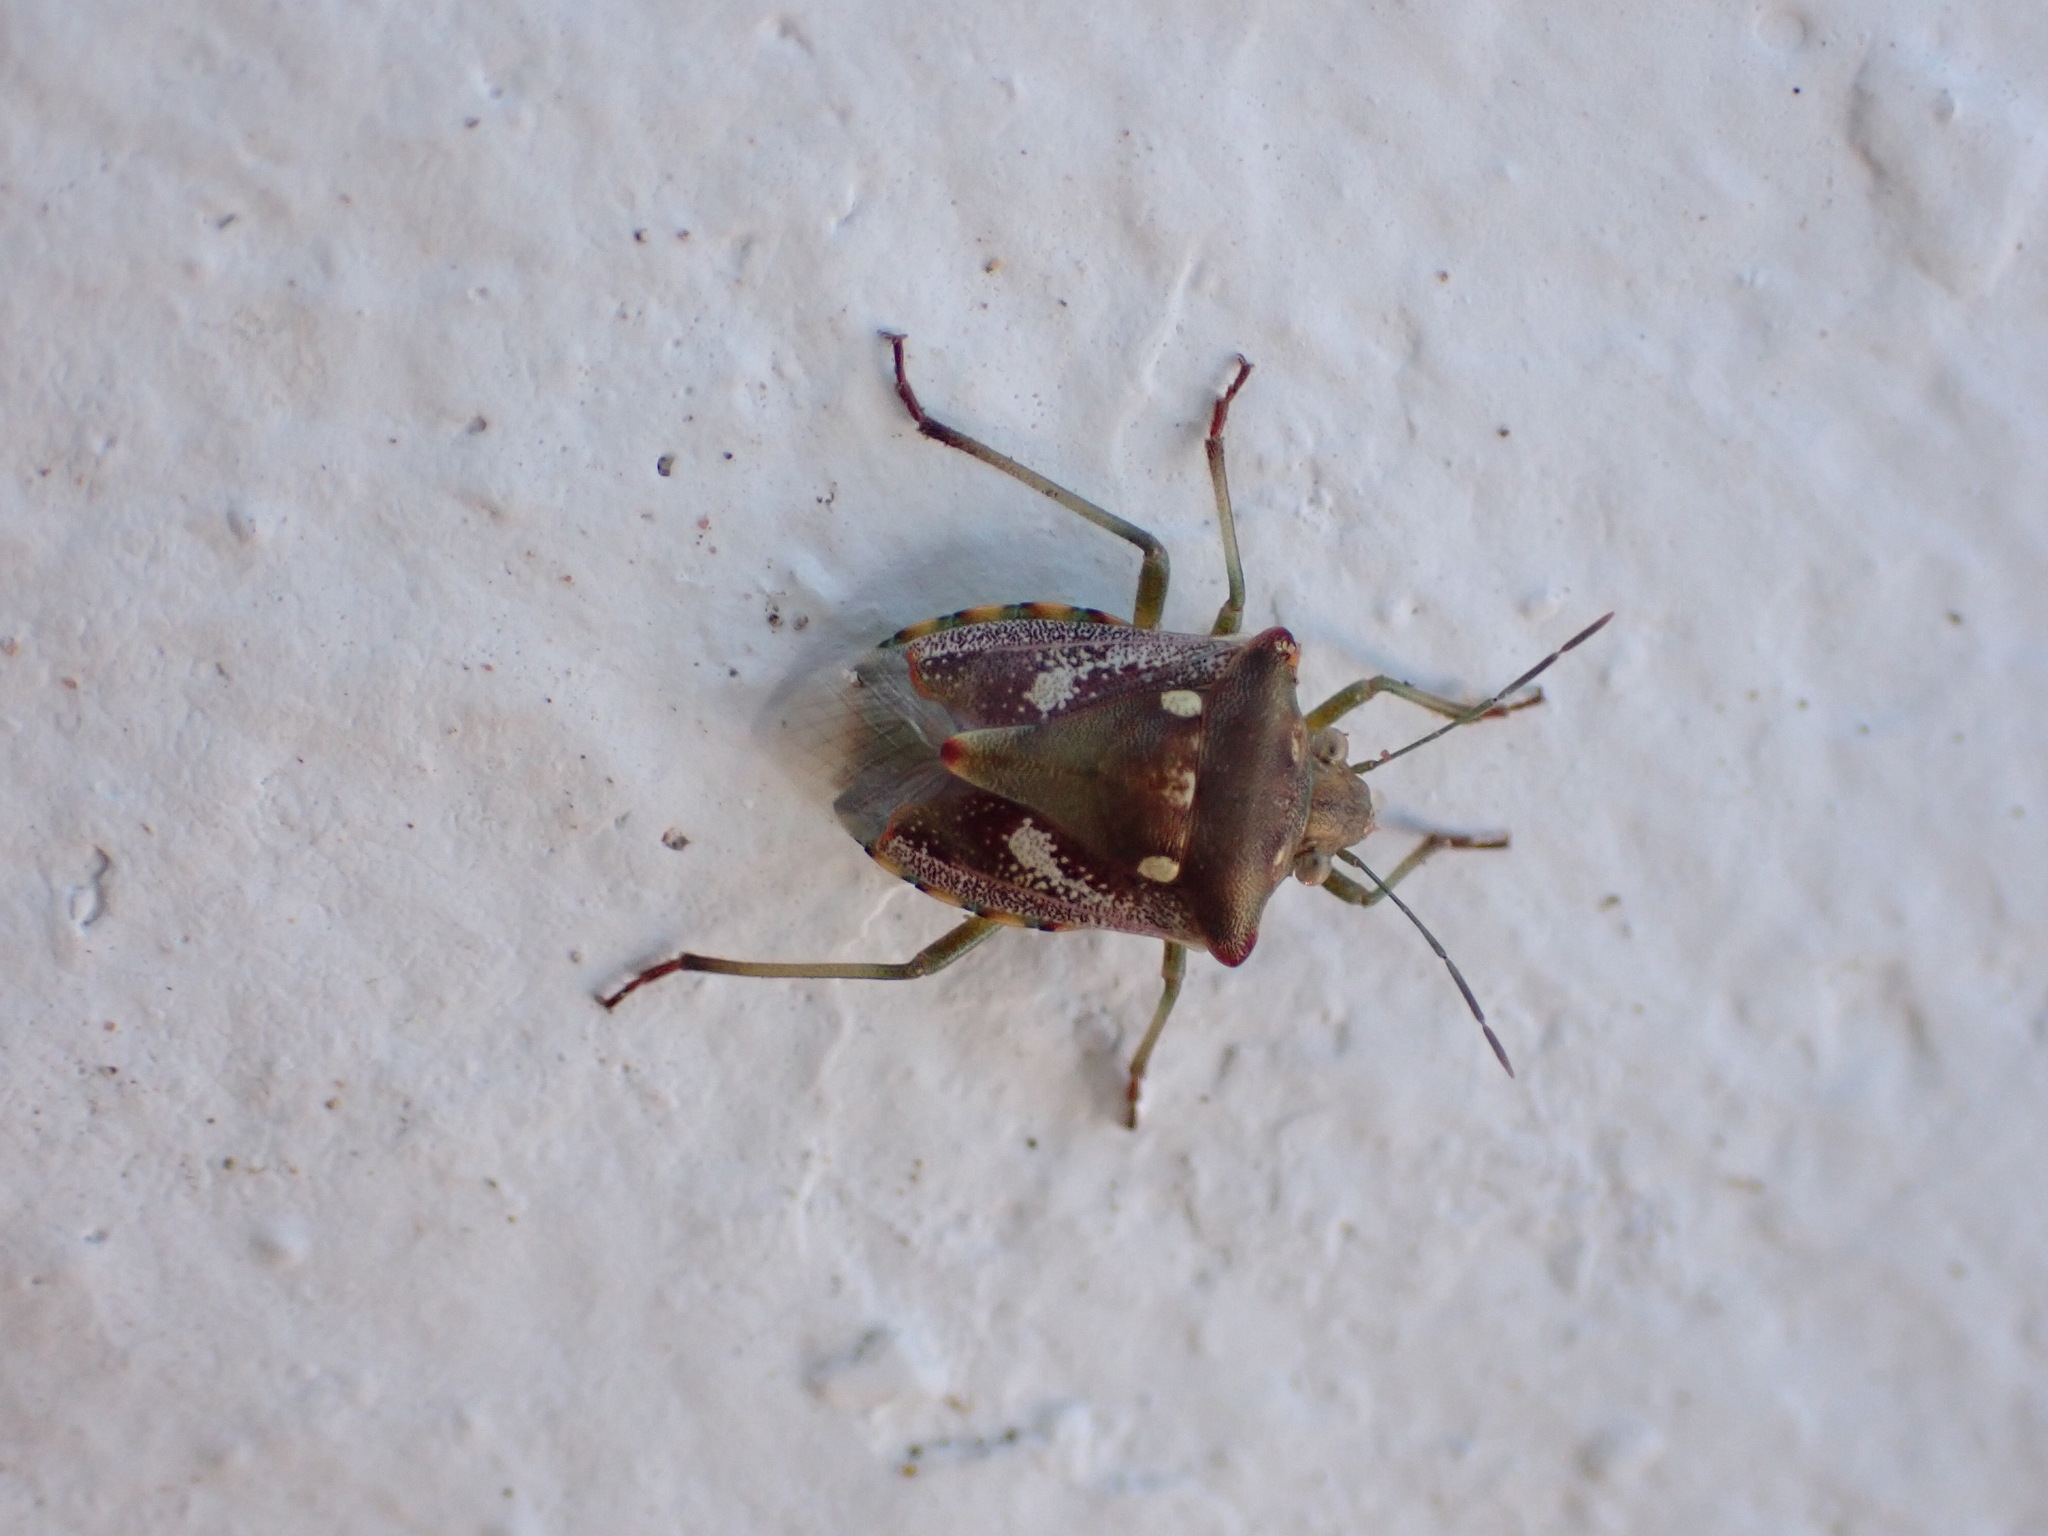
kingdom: Animalia
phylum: Arthropoda
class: Insecta
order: Hemiptera
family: Pentatomidae
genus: Croantha
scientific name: Croantha ornatula
